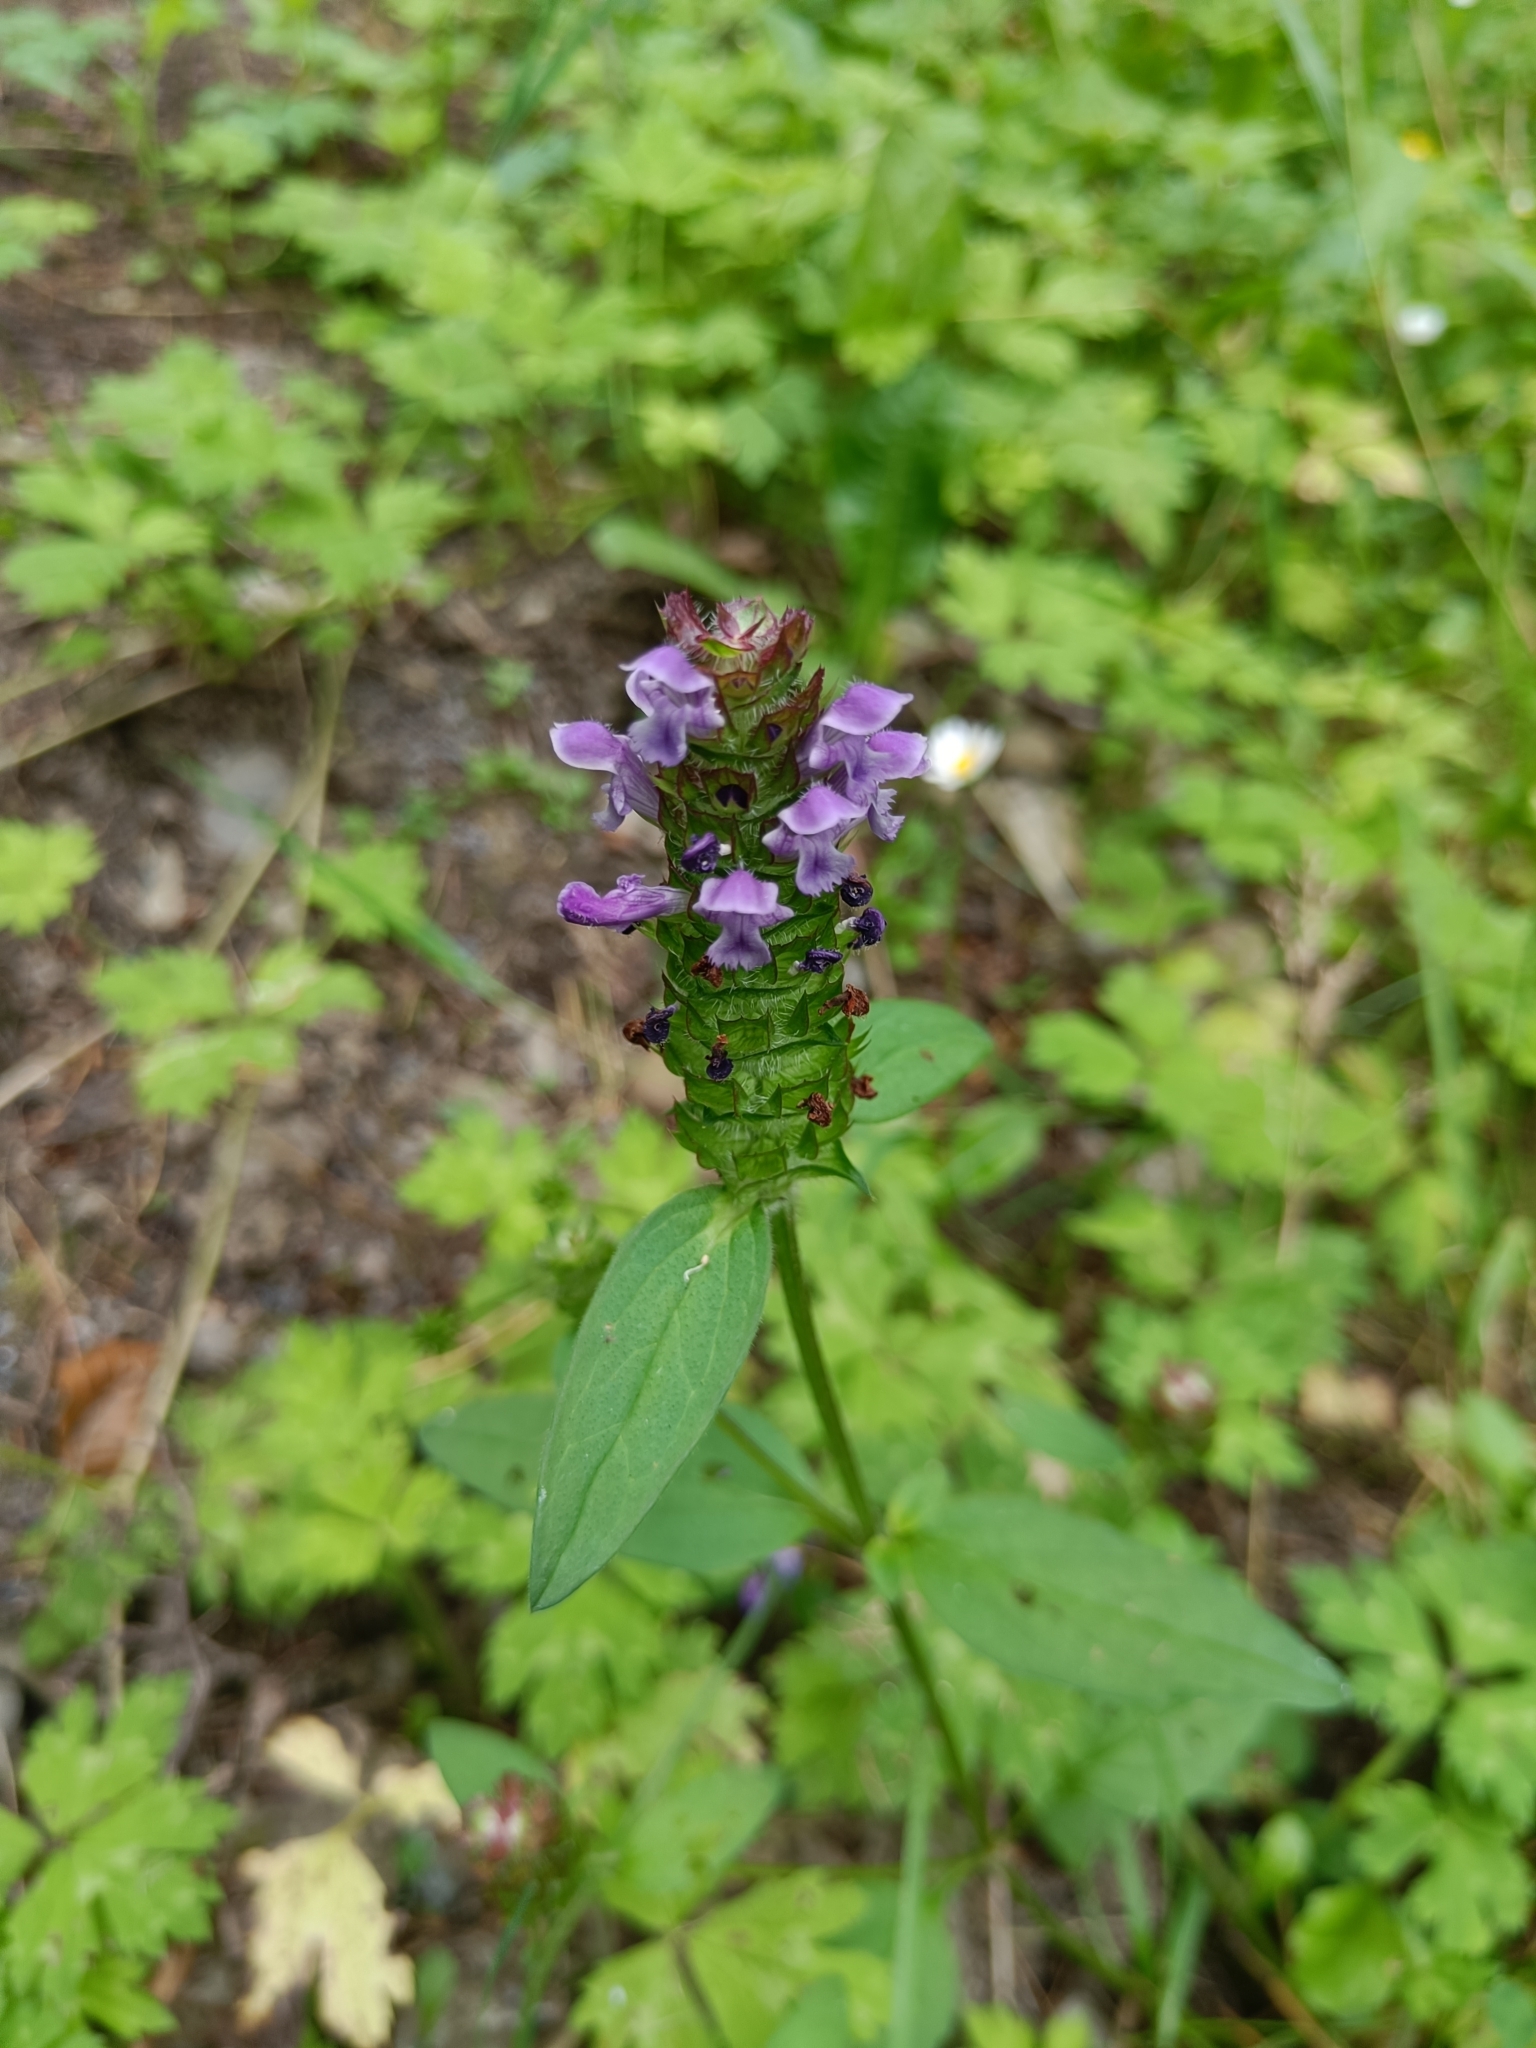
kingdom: Plantae
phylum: Tracheophyta
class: Magnoliopsida
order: Lamiales
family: Lamiaceae
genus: Prunella
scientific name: Prunella vulgaris
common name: Heal-all
